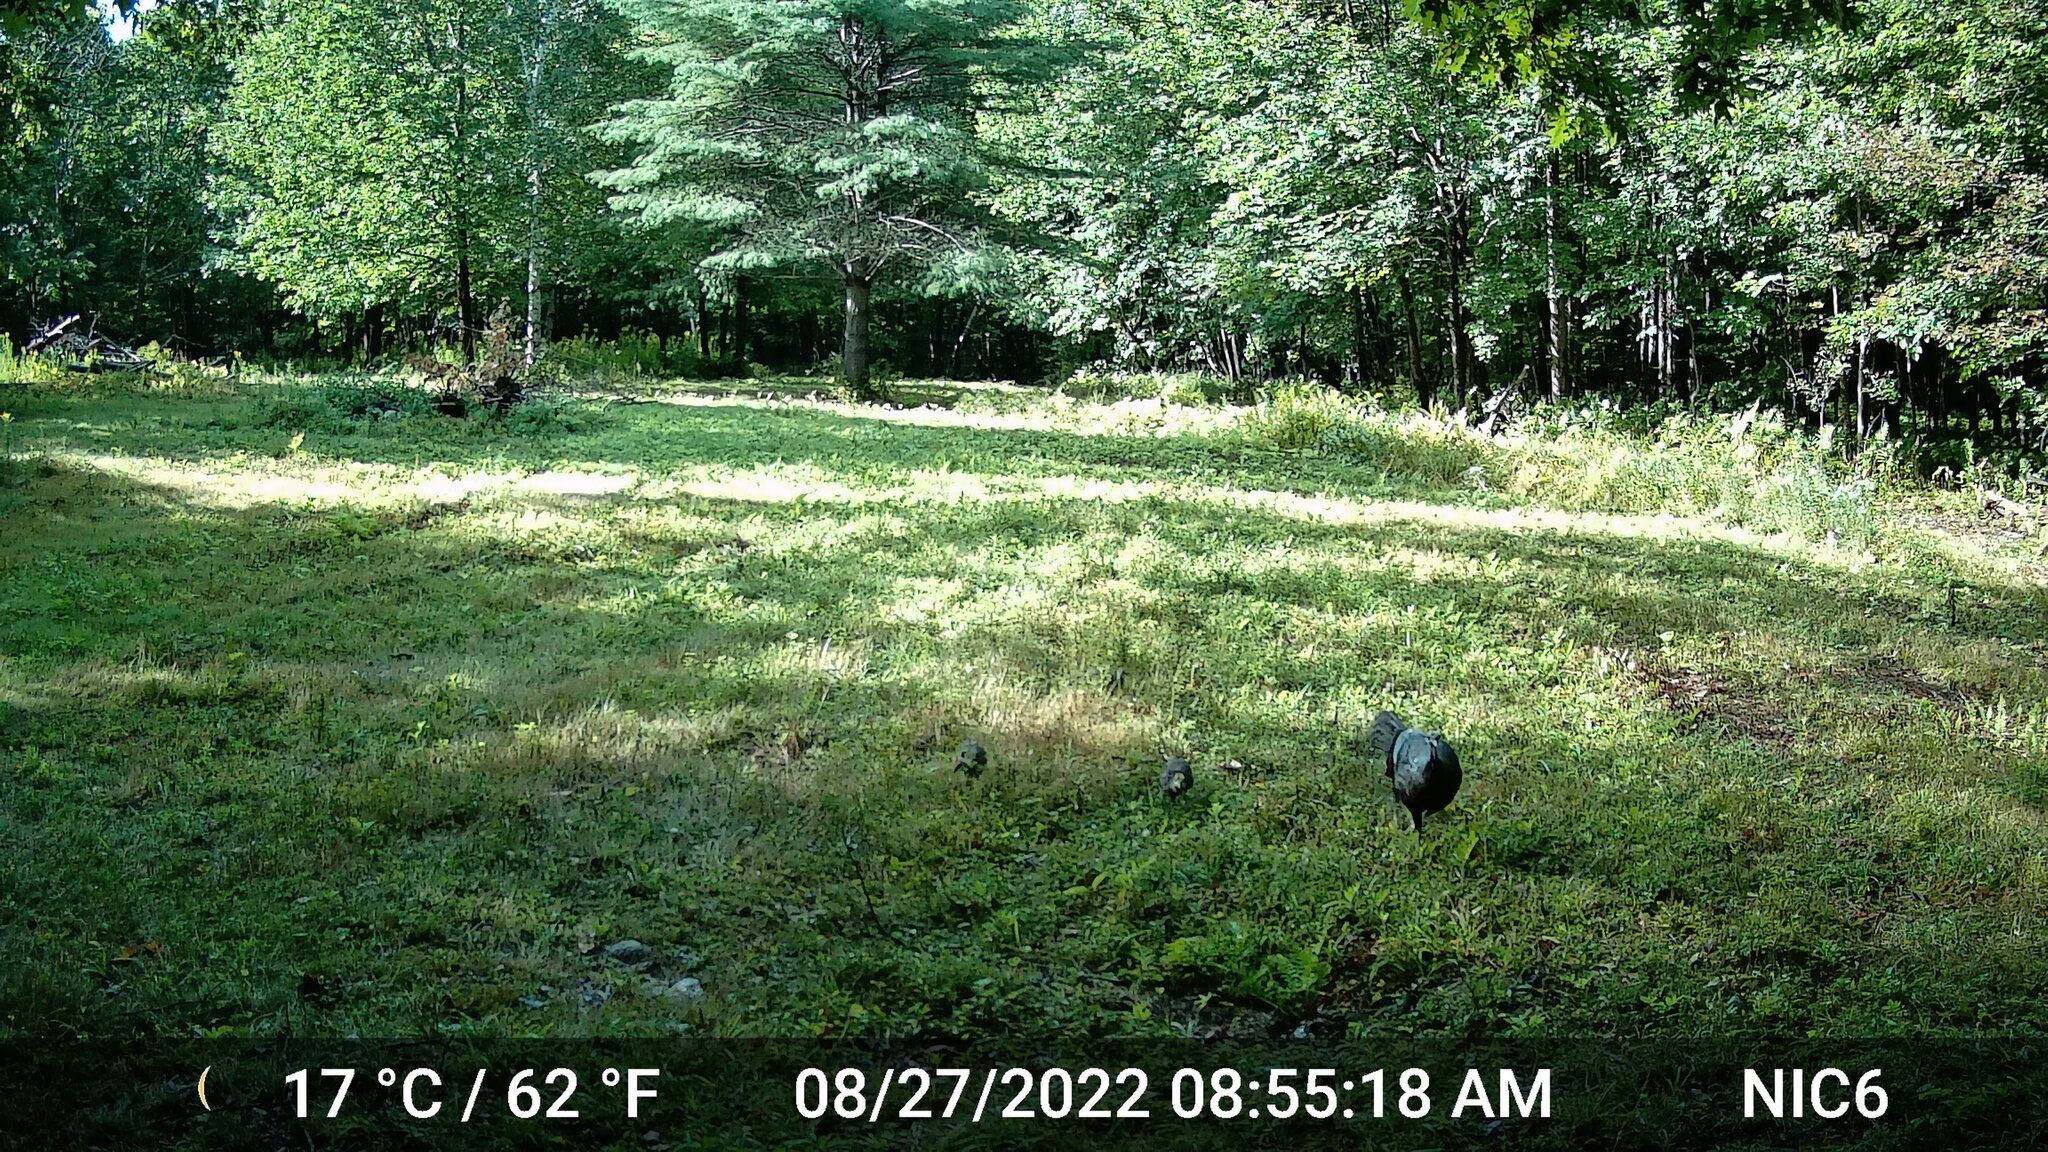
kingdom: Animalia
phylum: Chordata
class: Aves
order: Galliformes
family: Phasianidae
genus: Meleagris
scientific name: Meleagris gallopavo
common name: Wild turkey
